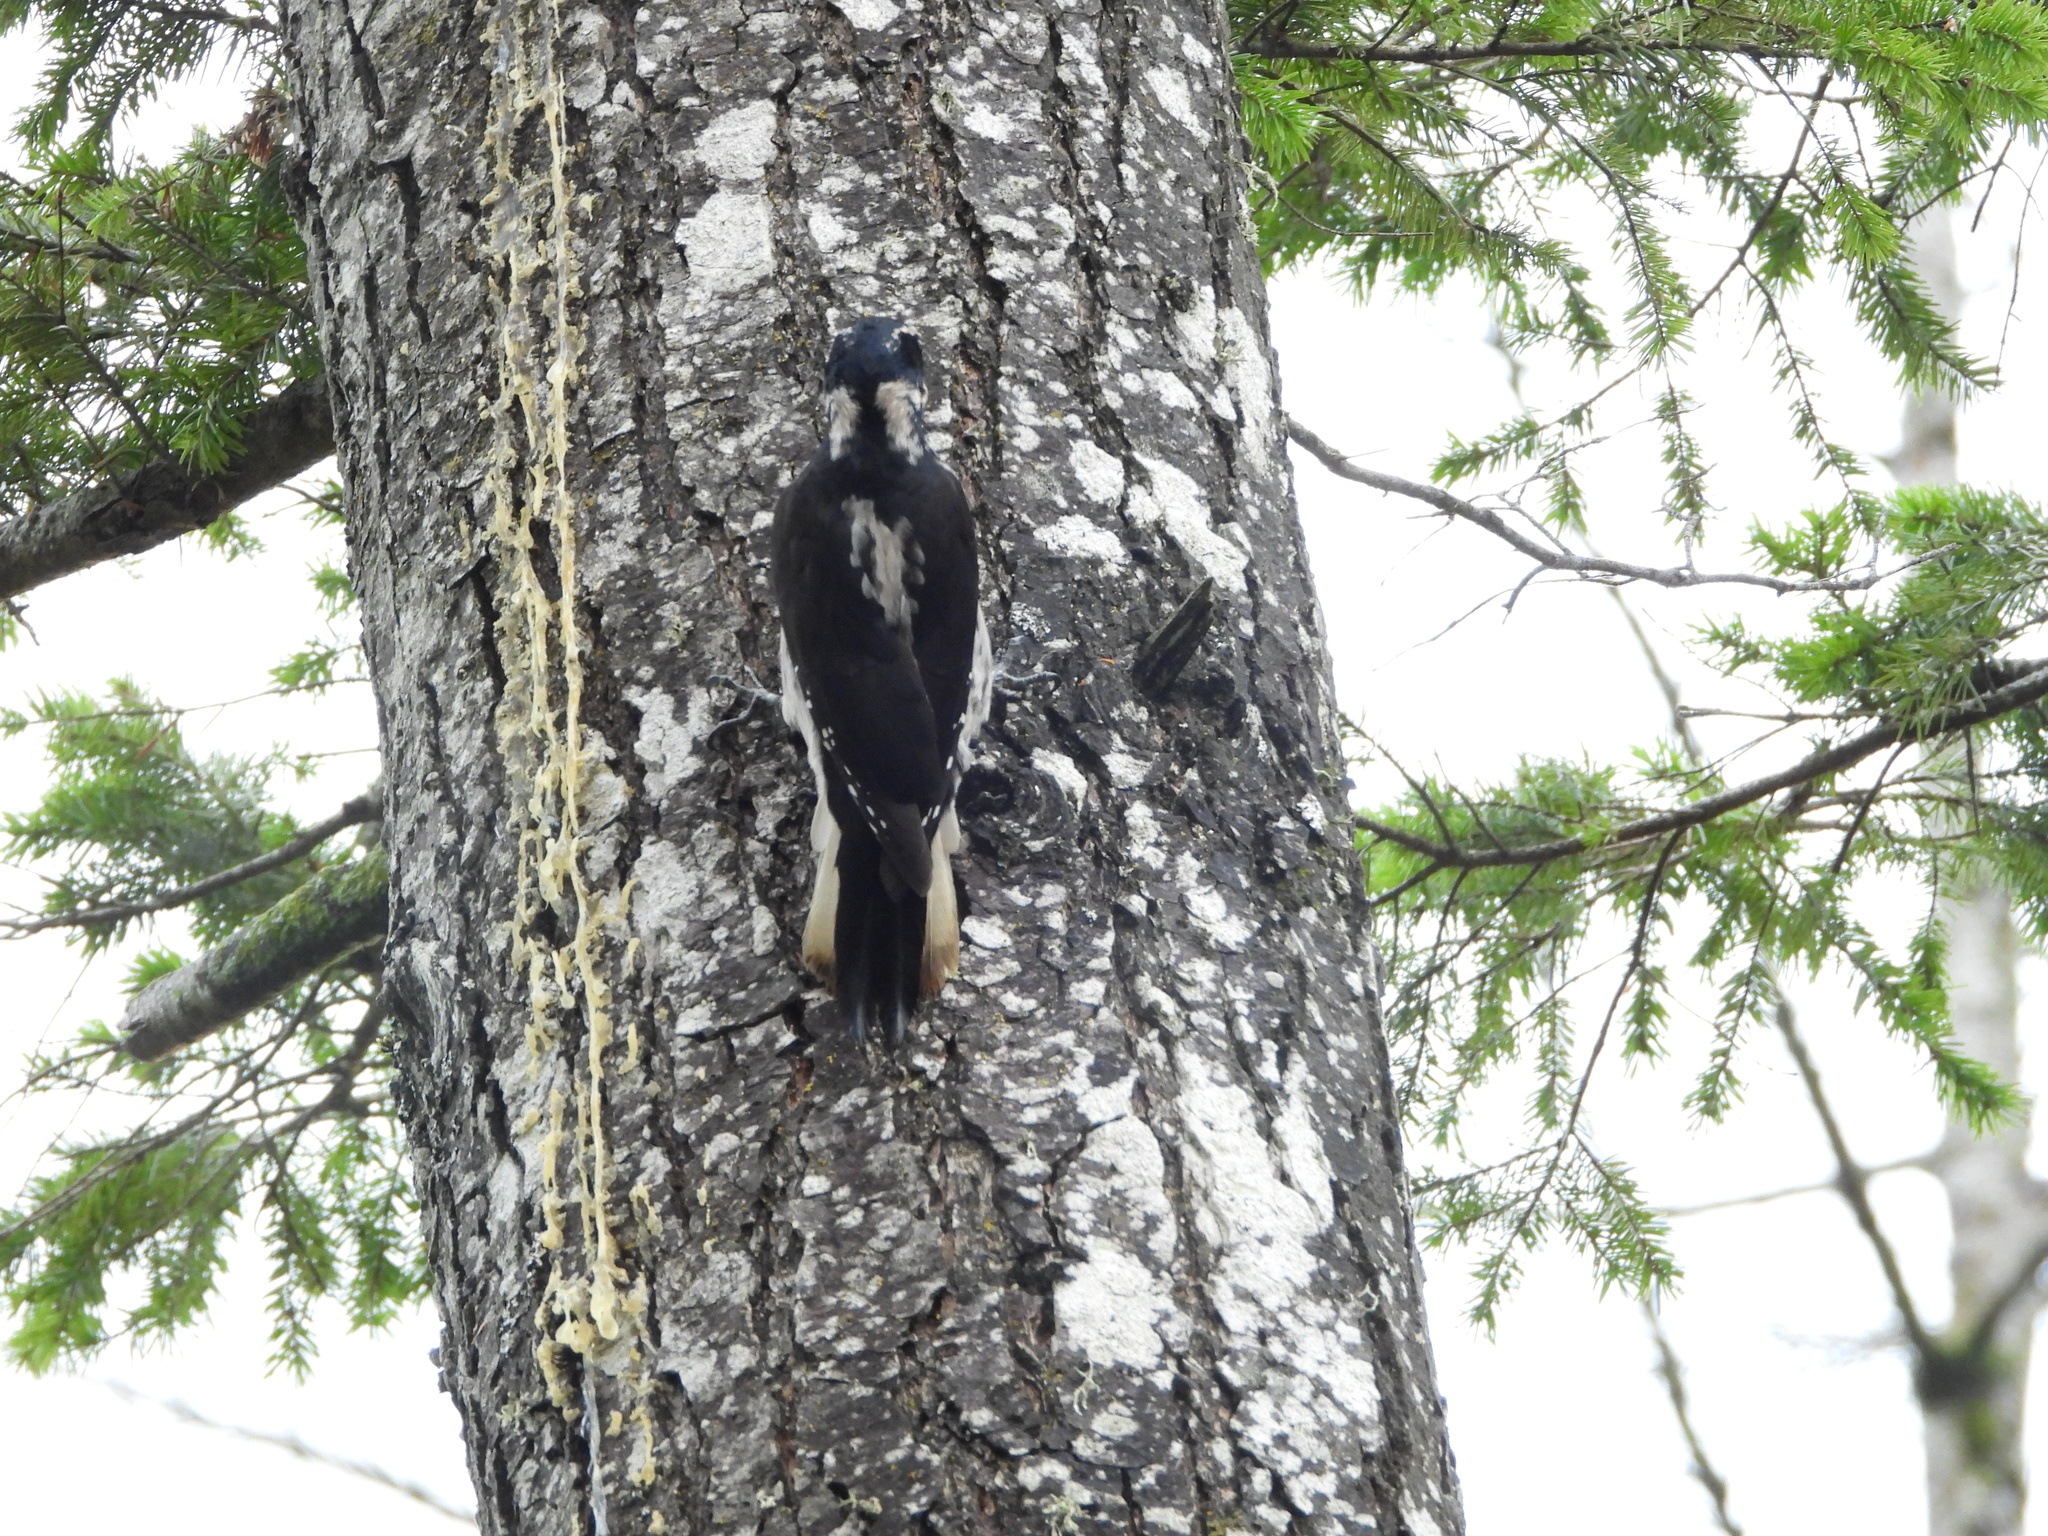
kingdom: Animalia
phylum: Chordata
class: Aves
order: Piciformes
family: Picidae
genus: Leuconotopicus
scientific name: Leuconotopicus villosus
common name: Hairy woodpecker
